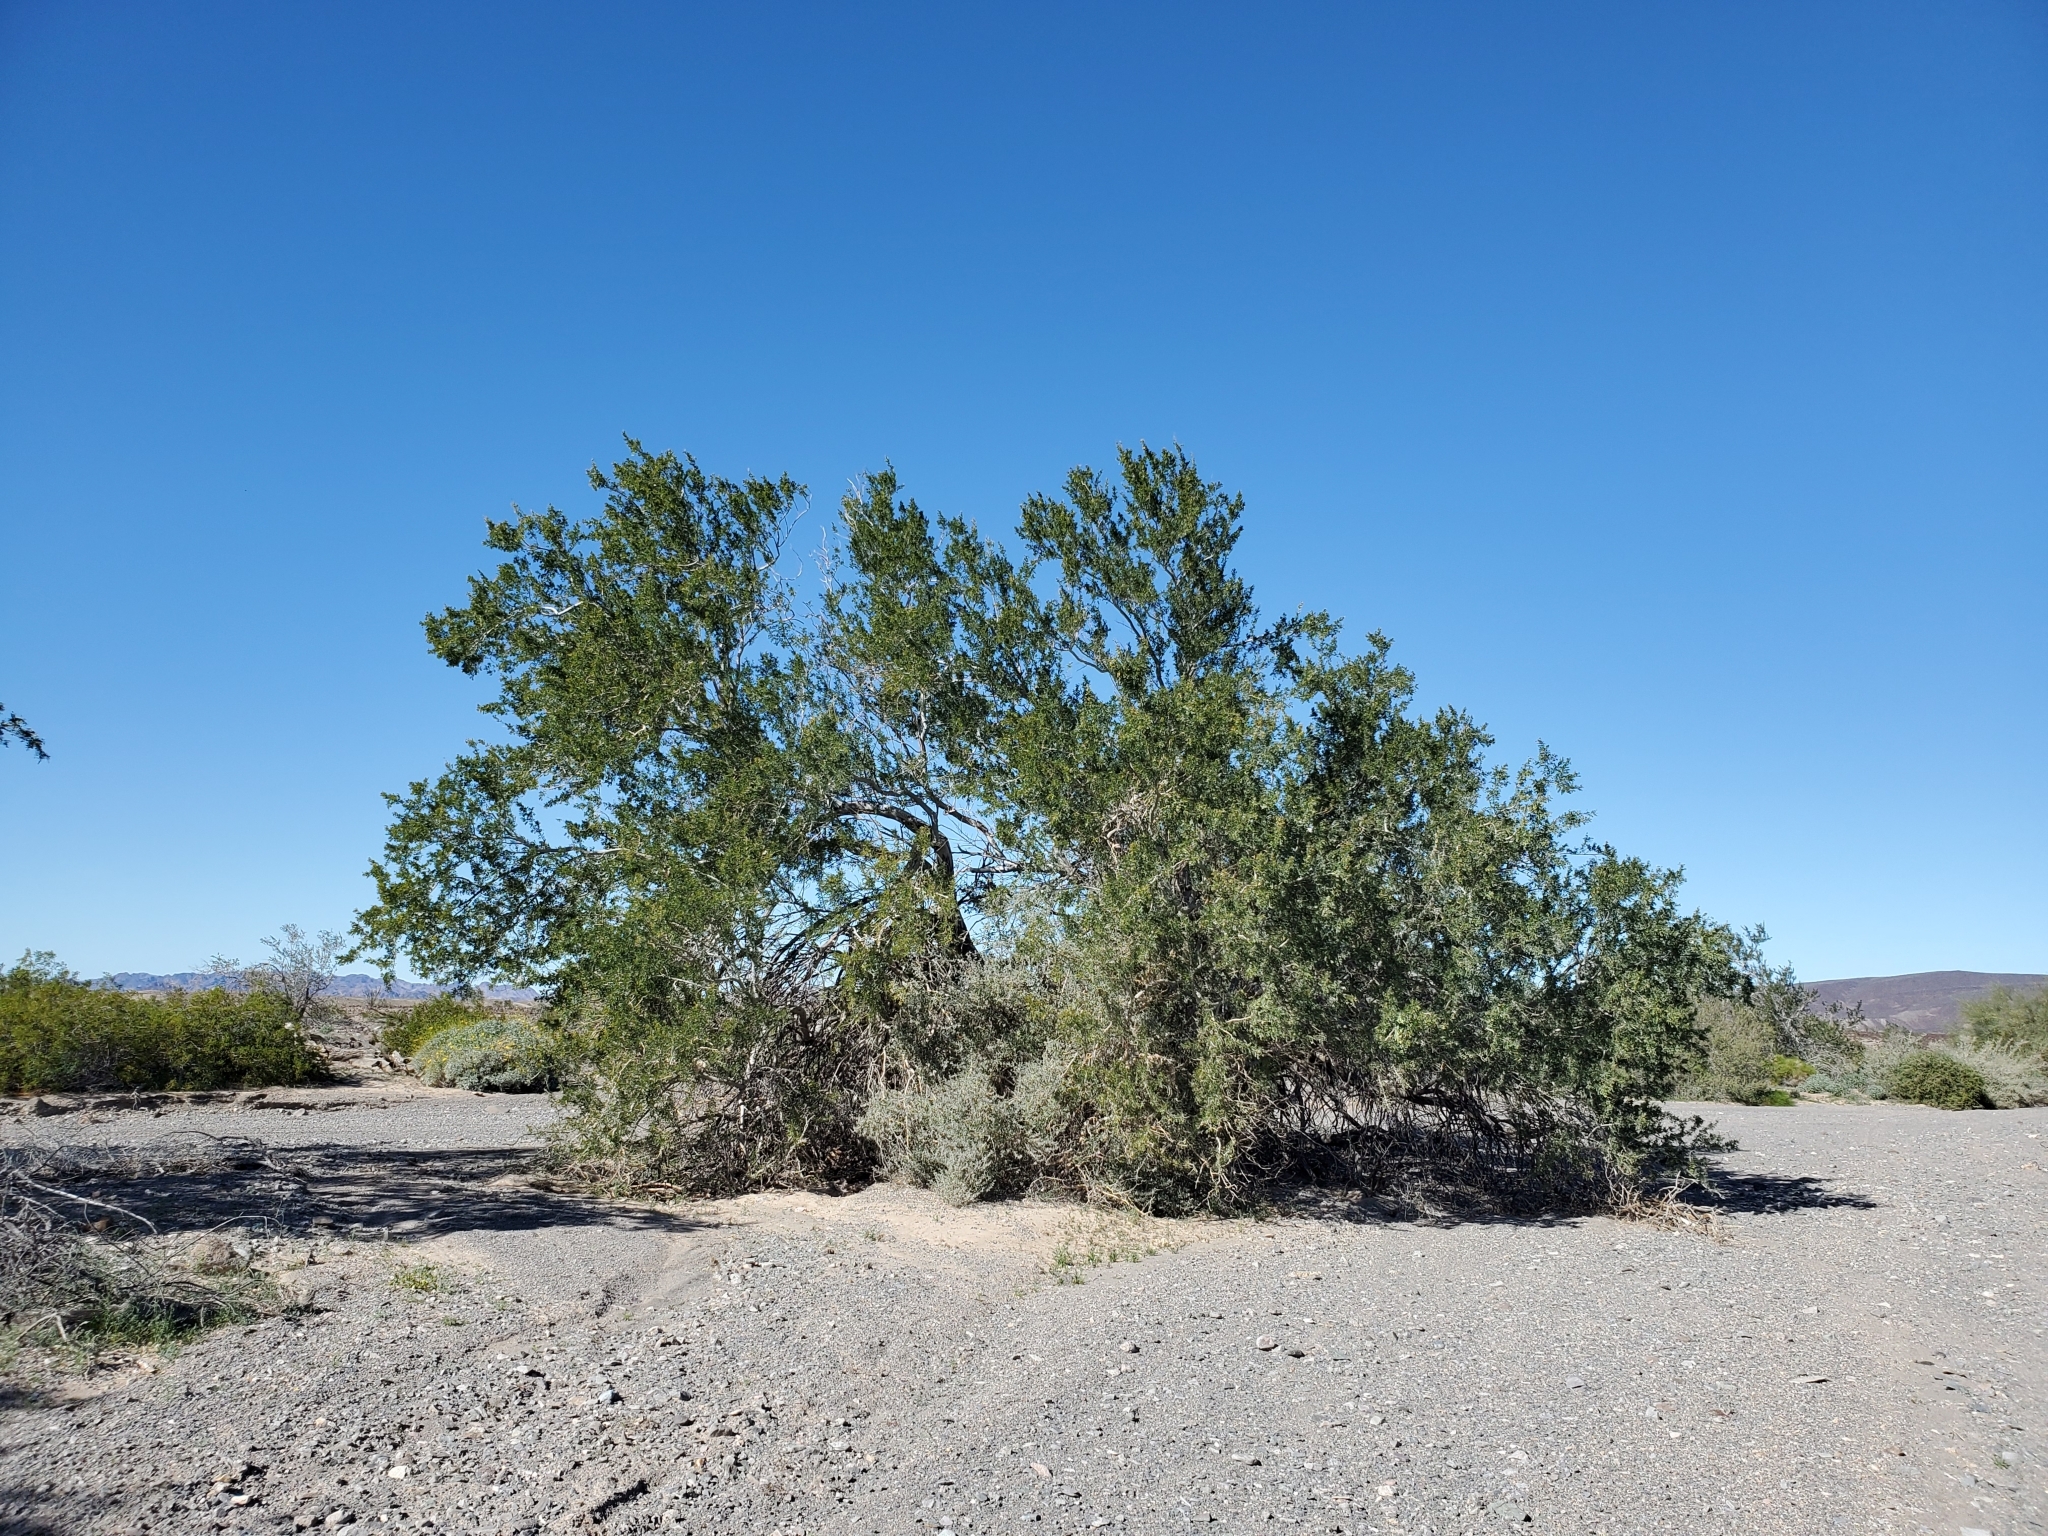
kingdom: Plantae
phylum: Tracheophyta
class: Magnoliopsida
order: Fabales
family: Fabaceae
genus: Olneya
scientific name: Olneya tesota
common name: Desert ironwood
